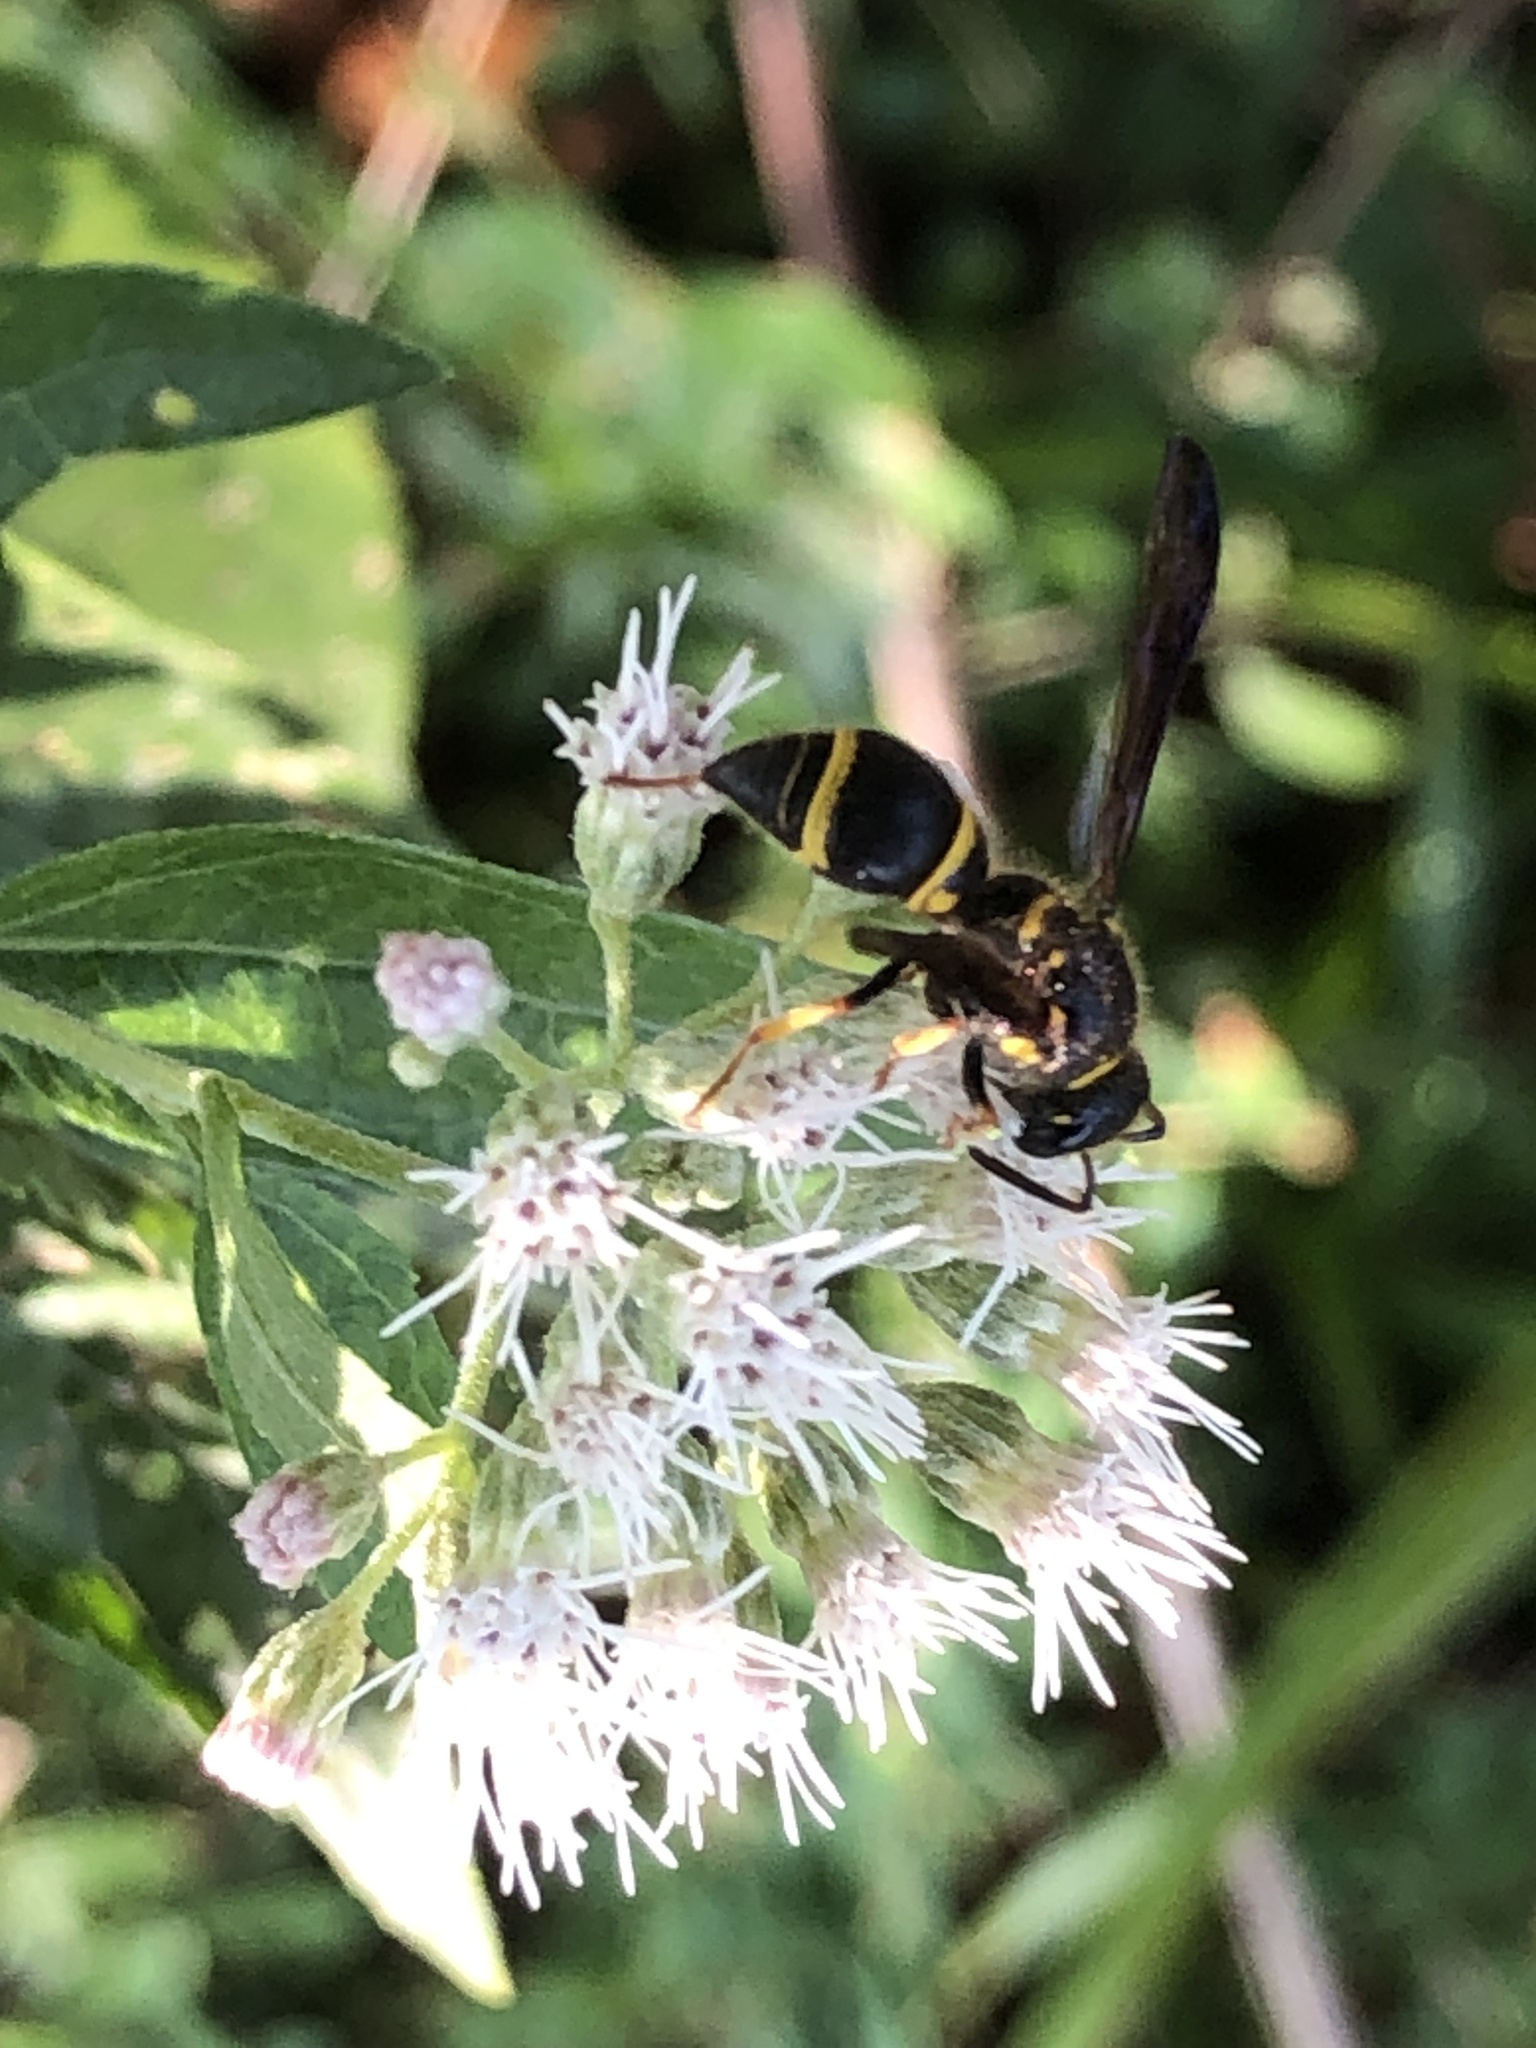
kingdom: Animalia
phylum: Arthropoda
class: Insecta
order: Hymenoptera
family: Vespidae
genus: Ancistrocerus
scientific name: Ancistrocerus campestris
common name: Smiling mason wasp
